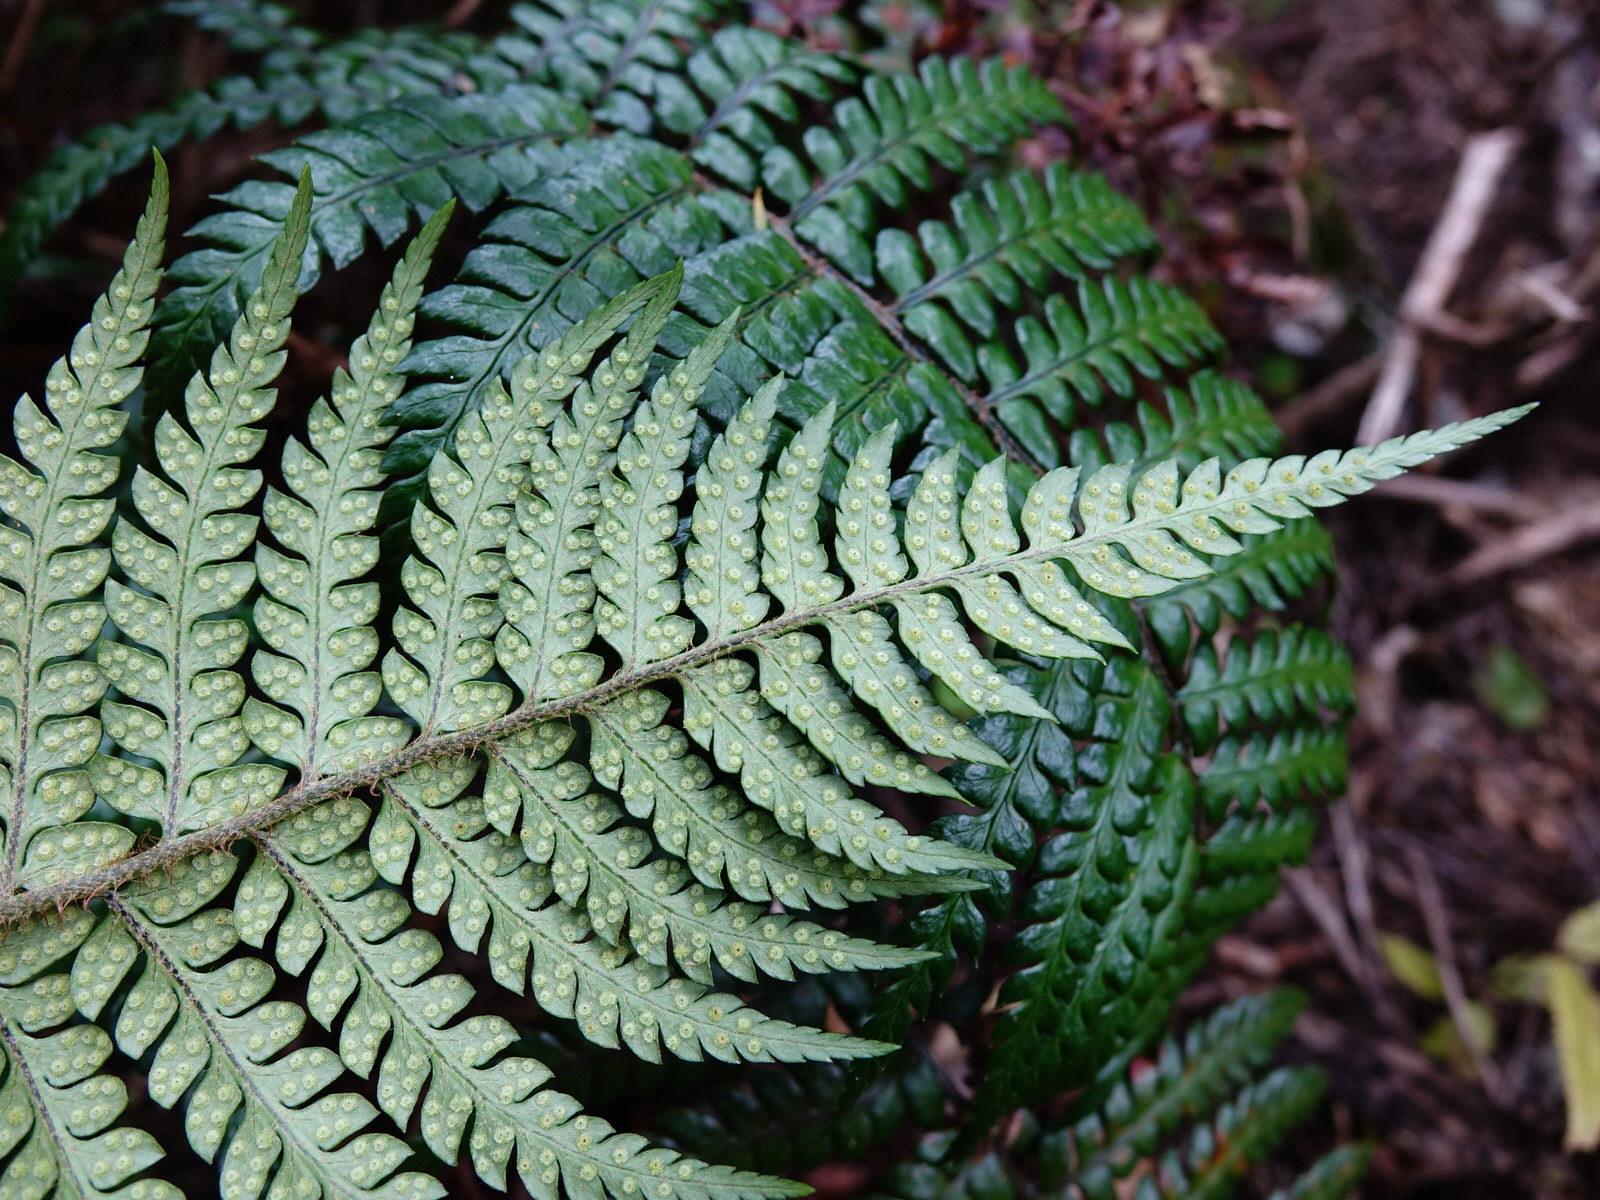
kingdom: Plantae
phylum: Tracheophyta
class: Polypodiopsida
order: Polypodiales
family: Dryopteridaceae
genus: Polystichum
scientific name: Polystichum wawranum
